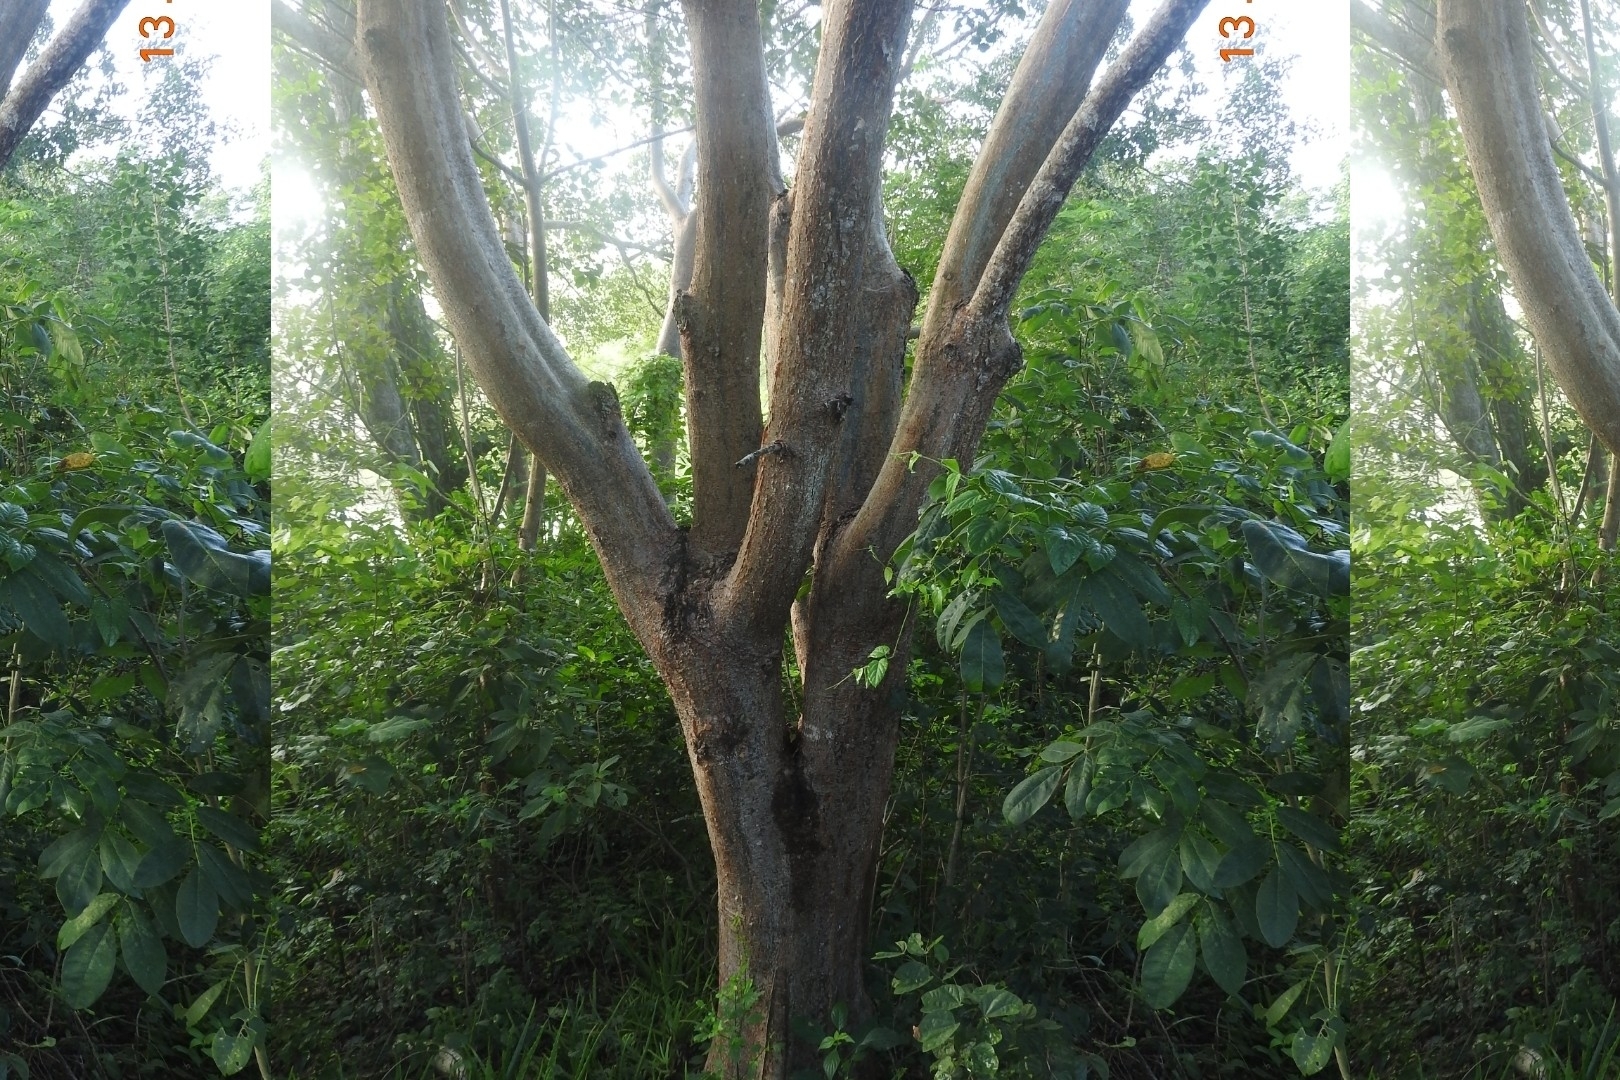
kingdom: Plantae
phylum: Tracheophyta
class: Magnoliopsida
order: Sapindales
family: Burseraceae
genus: Bursera
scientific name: Bursera simaruba
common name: Turpentine tree
